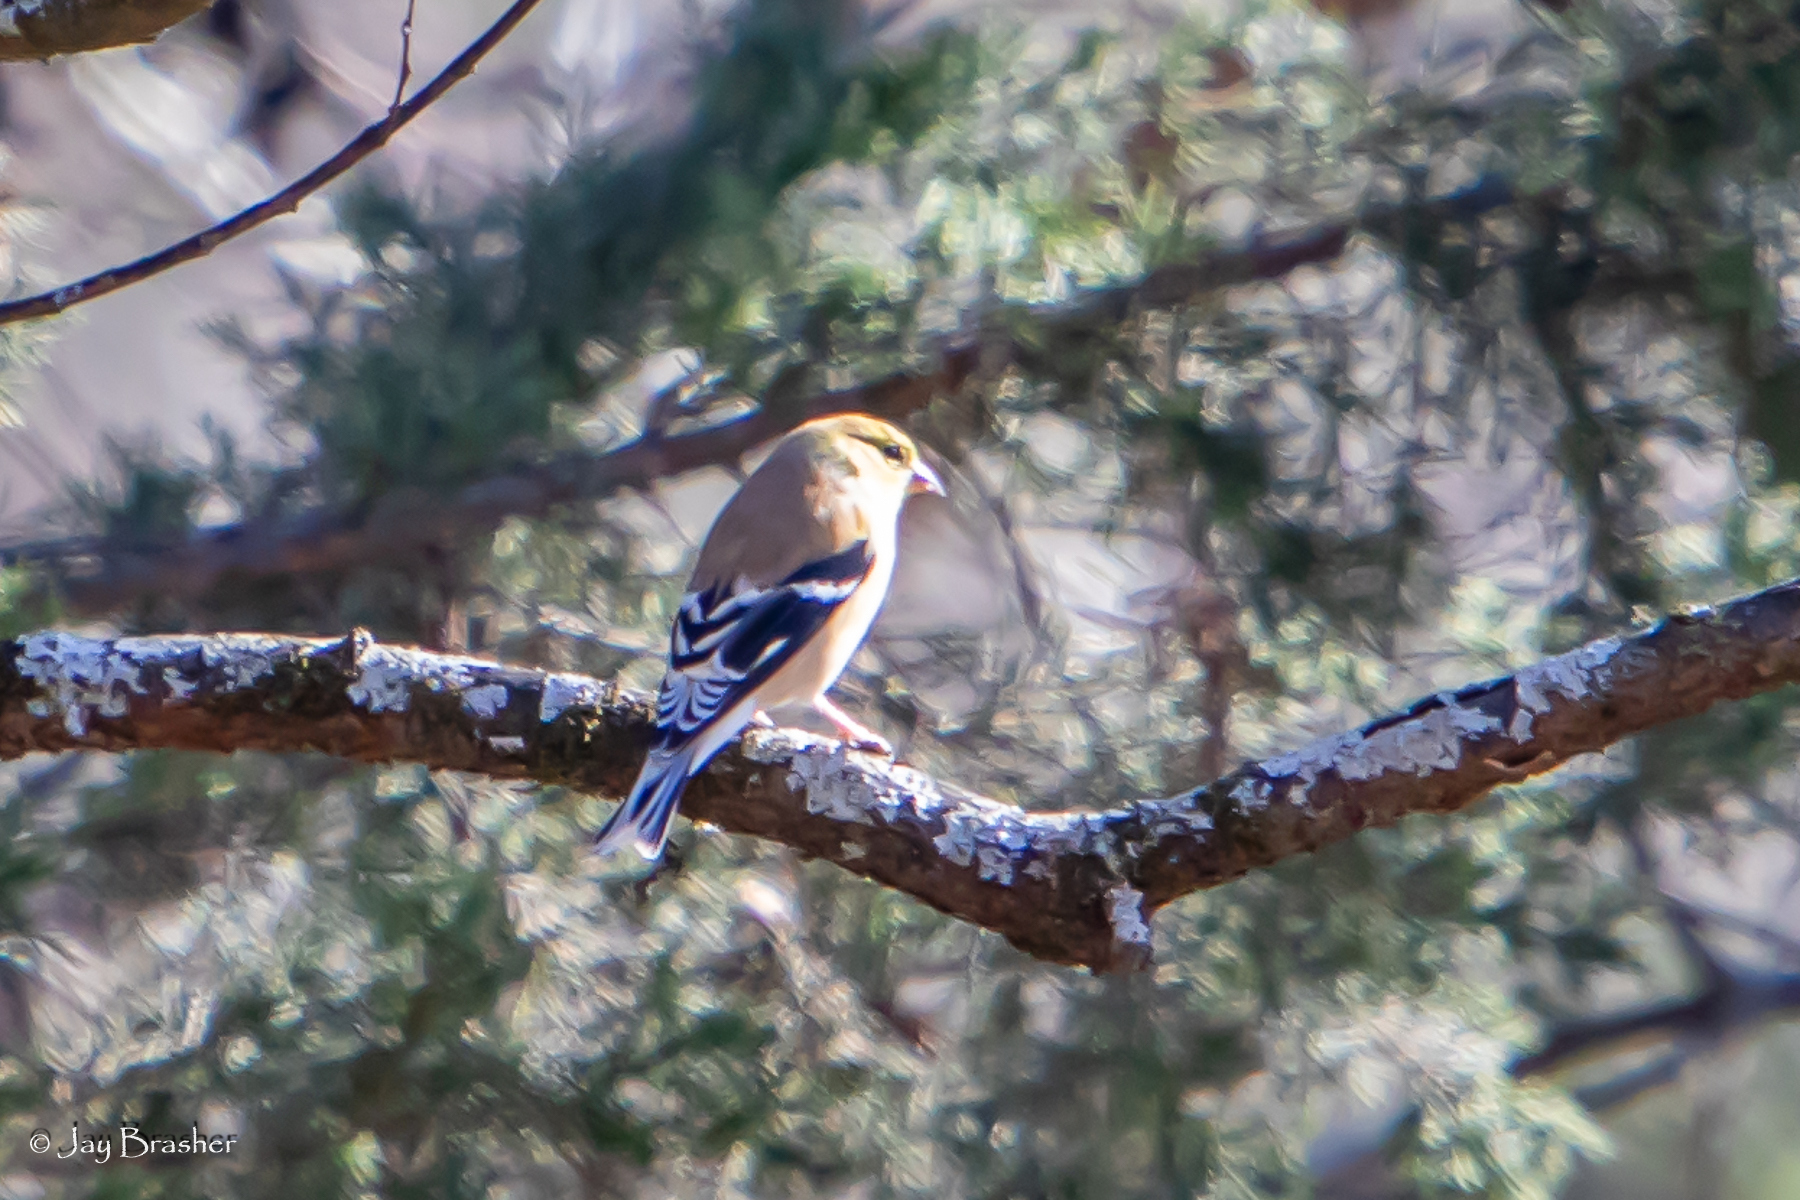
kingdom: Animalia
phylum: Chordata
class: Aves
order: Passeriformes
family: Fringillidae
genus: Spinus
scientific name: Spinus tristis
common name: American goldfinch
